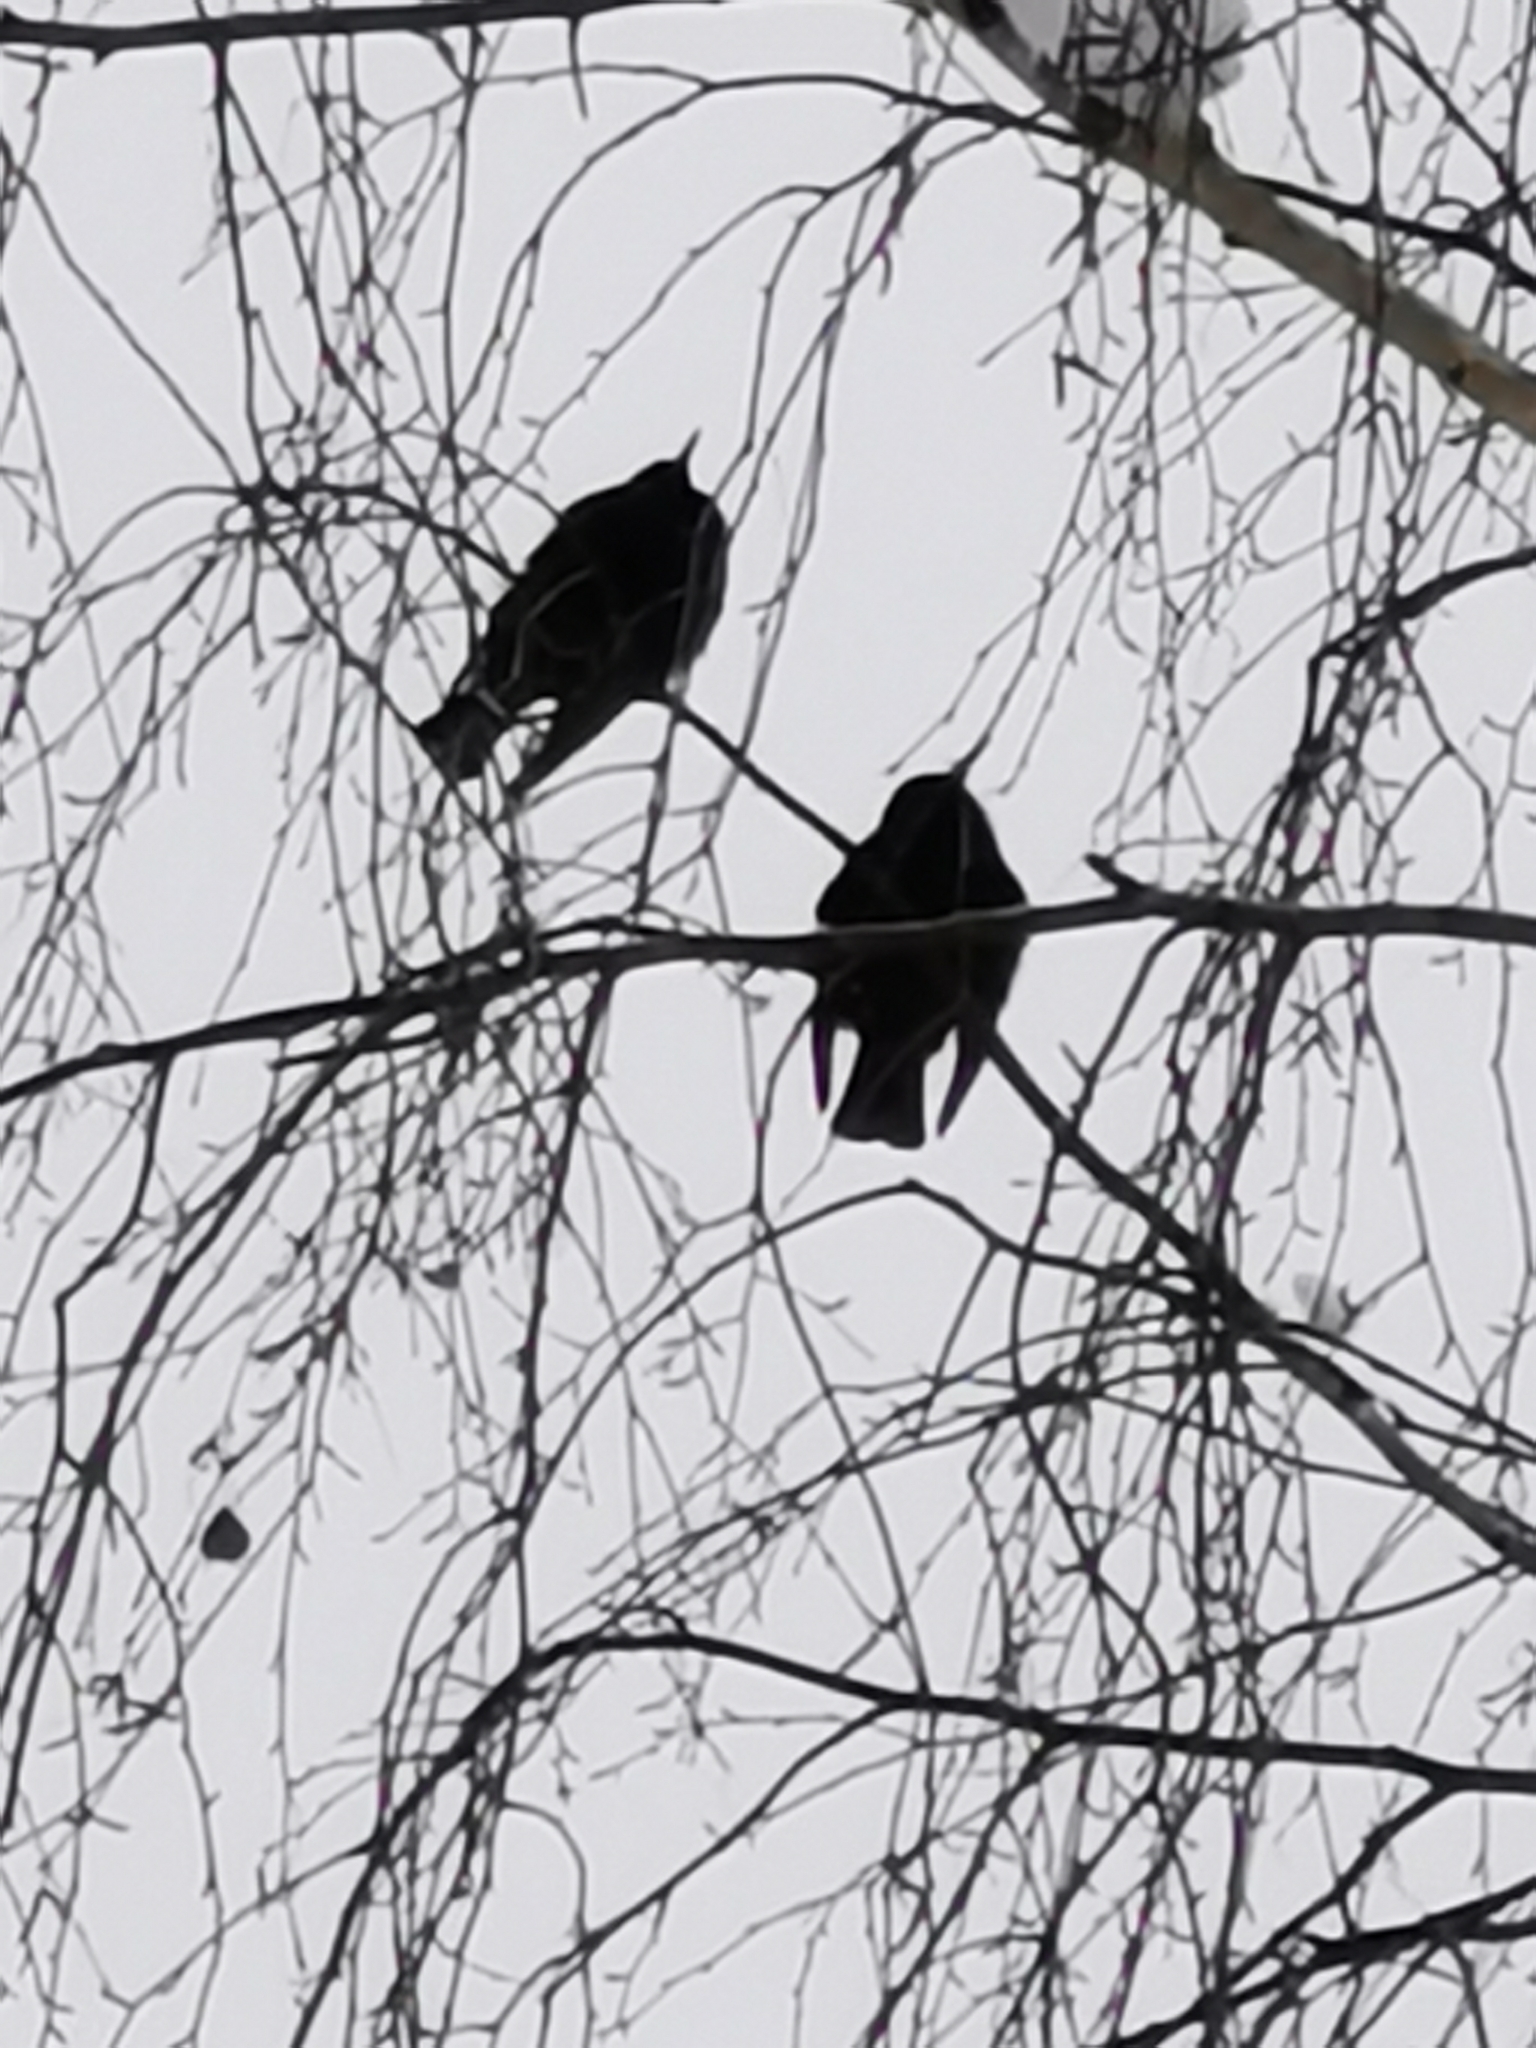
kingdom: Animalia
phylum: Chordata
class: Aves
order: Passeriformes
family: Sturnidae
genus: Sturnus
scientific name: Sturnus vulgaris
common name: Common starling
